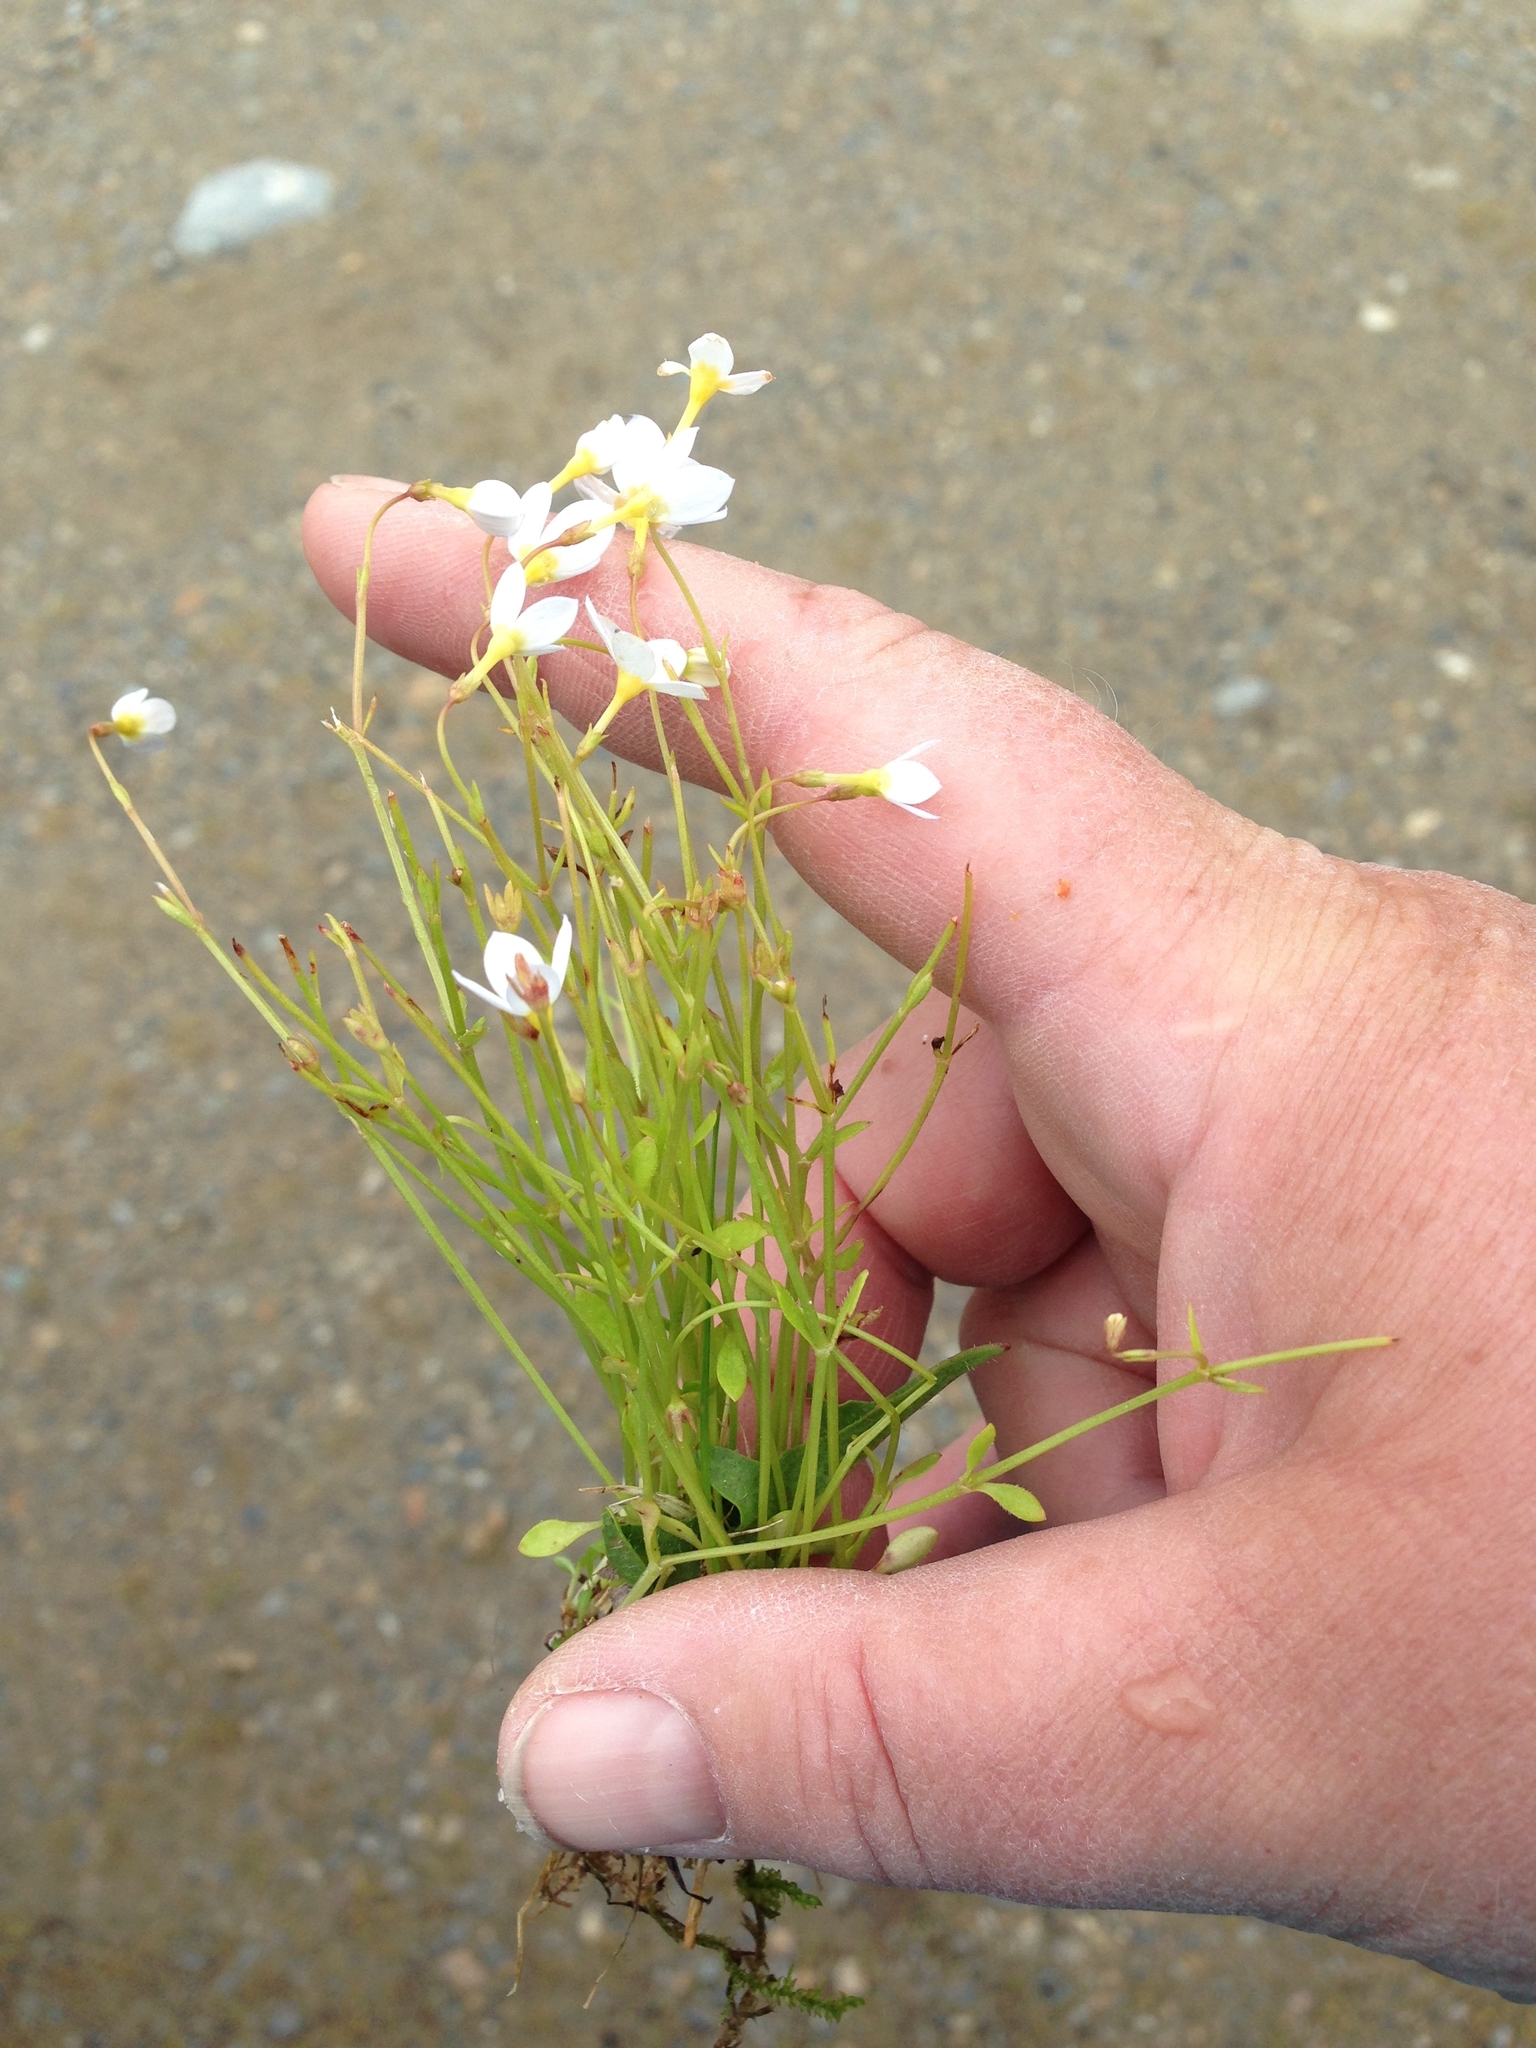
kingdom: Plantae
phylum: Tracheophyta
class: Magnoliopsida
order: Gentianales
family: Rubiaceae
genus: Houstonia
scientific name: Houstonia caerulea
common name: Bluets
